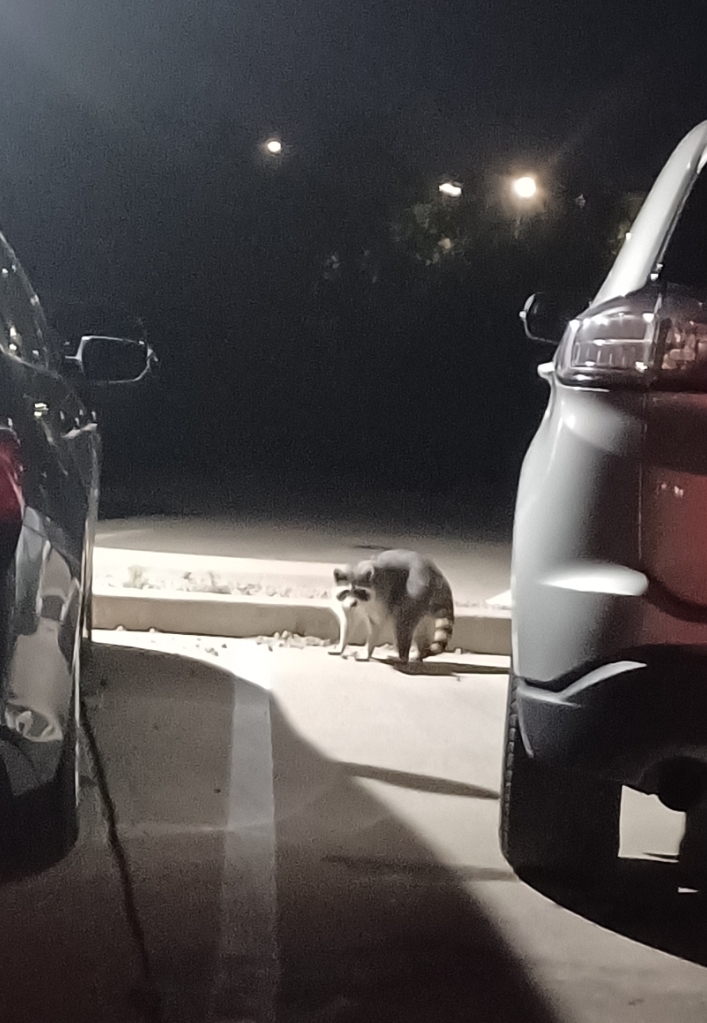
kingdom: Animalia
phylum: Chordata
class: Mammalia
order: Carnivora
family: Procyonidae
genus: Procyon
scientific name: Procyon lotor
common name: Raccoon
